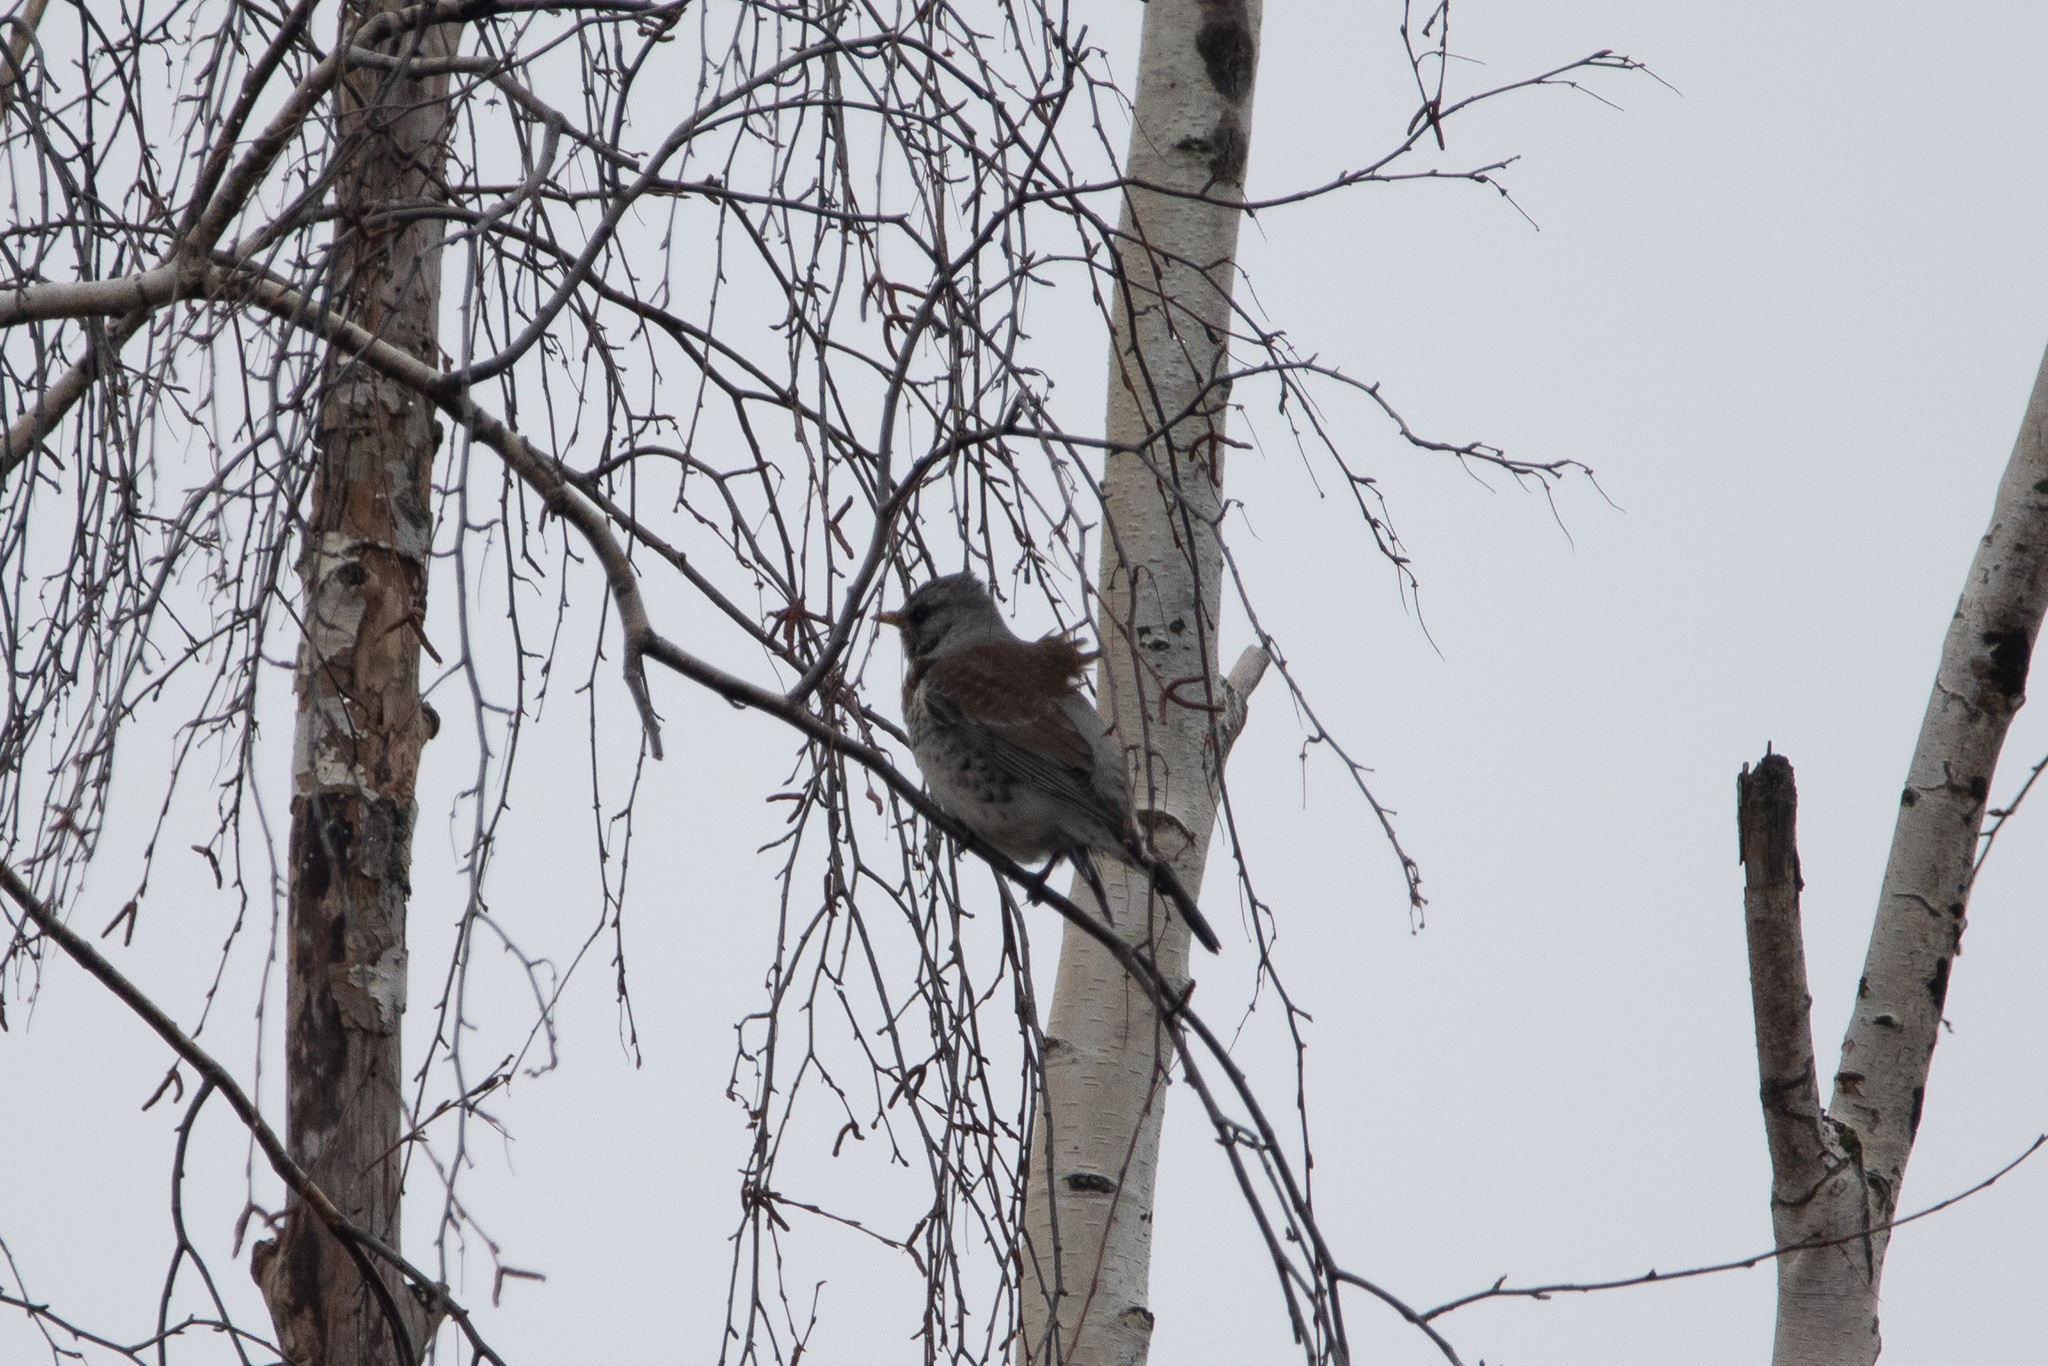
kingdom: Animalia
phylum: Chordata
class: Aves
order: Passeriformes
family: Turdidae
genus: Turdus
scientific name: Turdus pilaris
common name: Fieldfare
